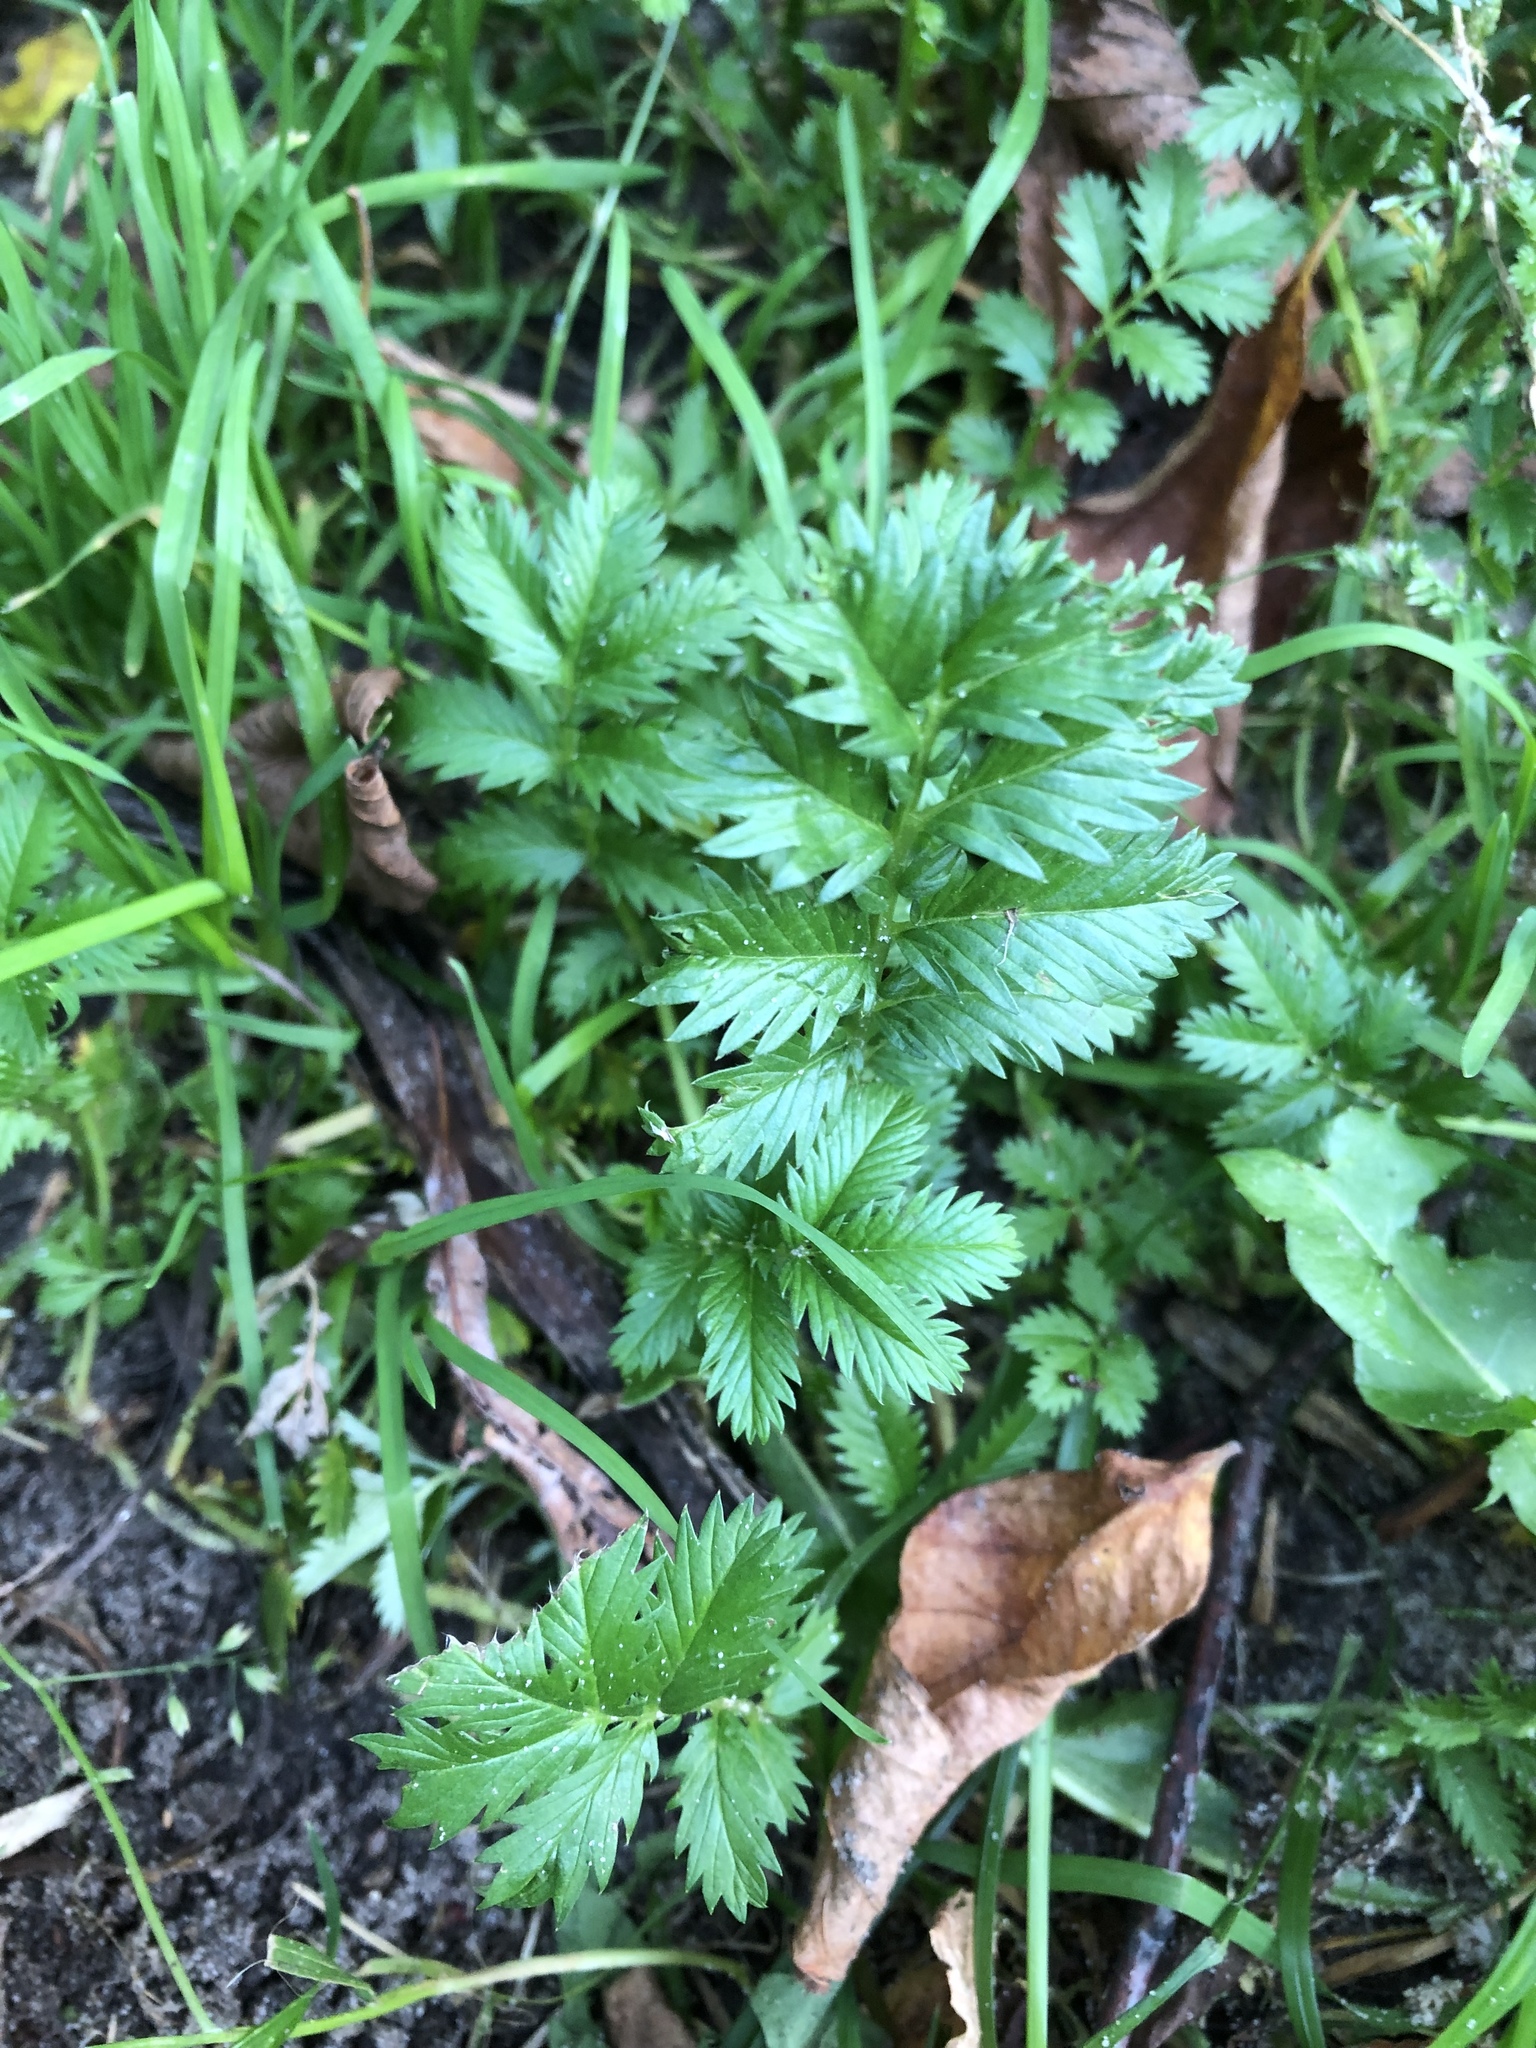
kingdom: Plantae
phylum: Tracheophyta
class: Magnoliopsida
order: Rosales
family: Rosaceae
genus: Argentina
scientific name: Argentina anserina
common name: Common silverweed
